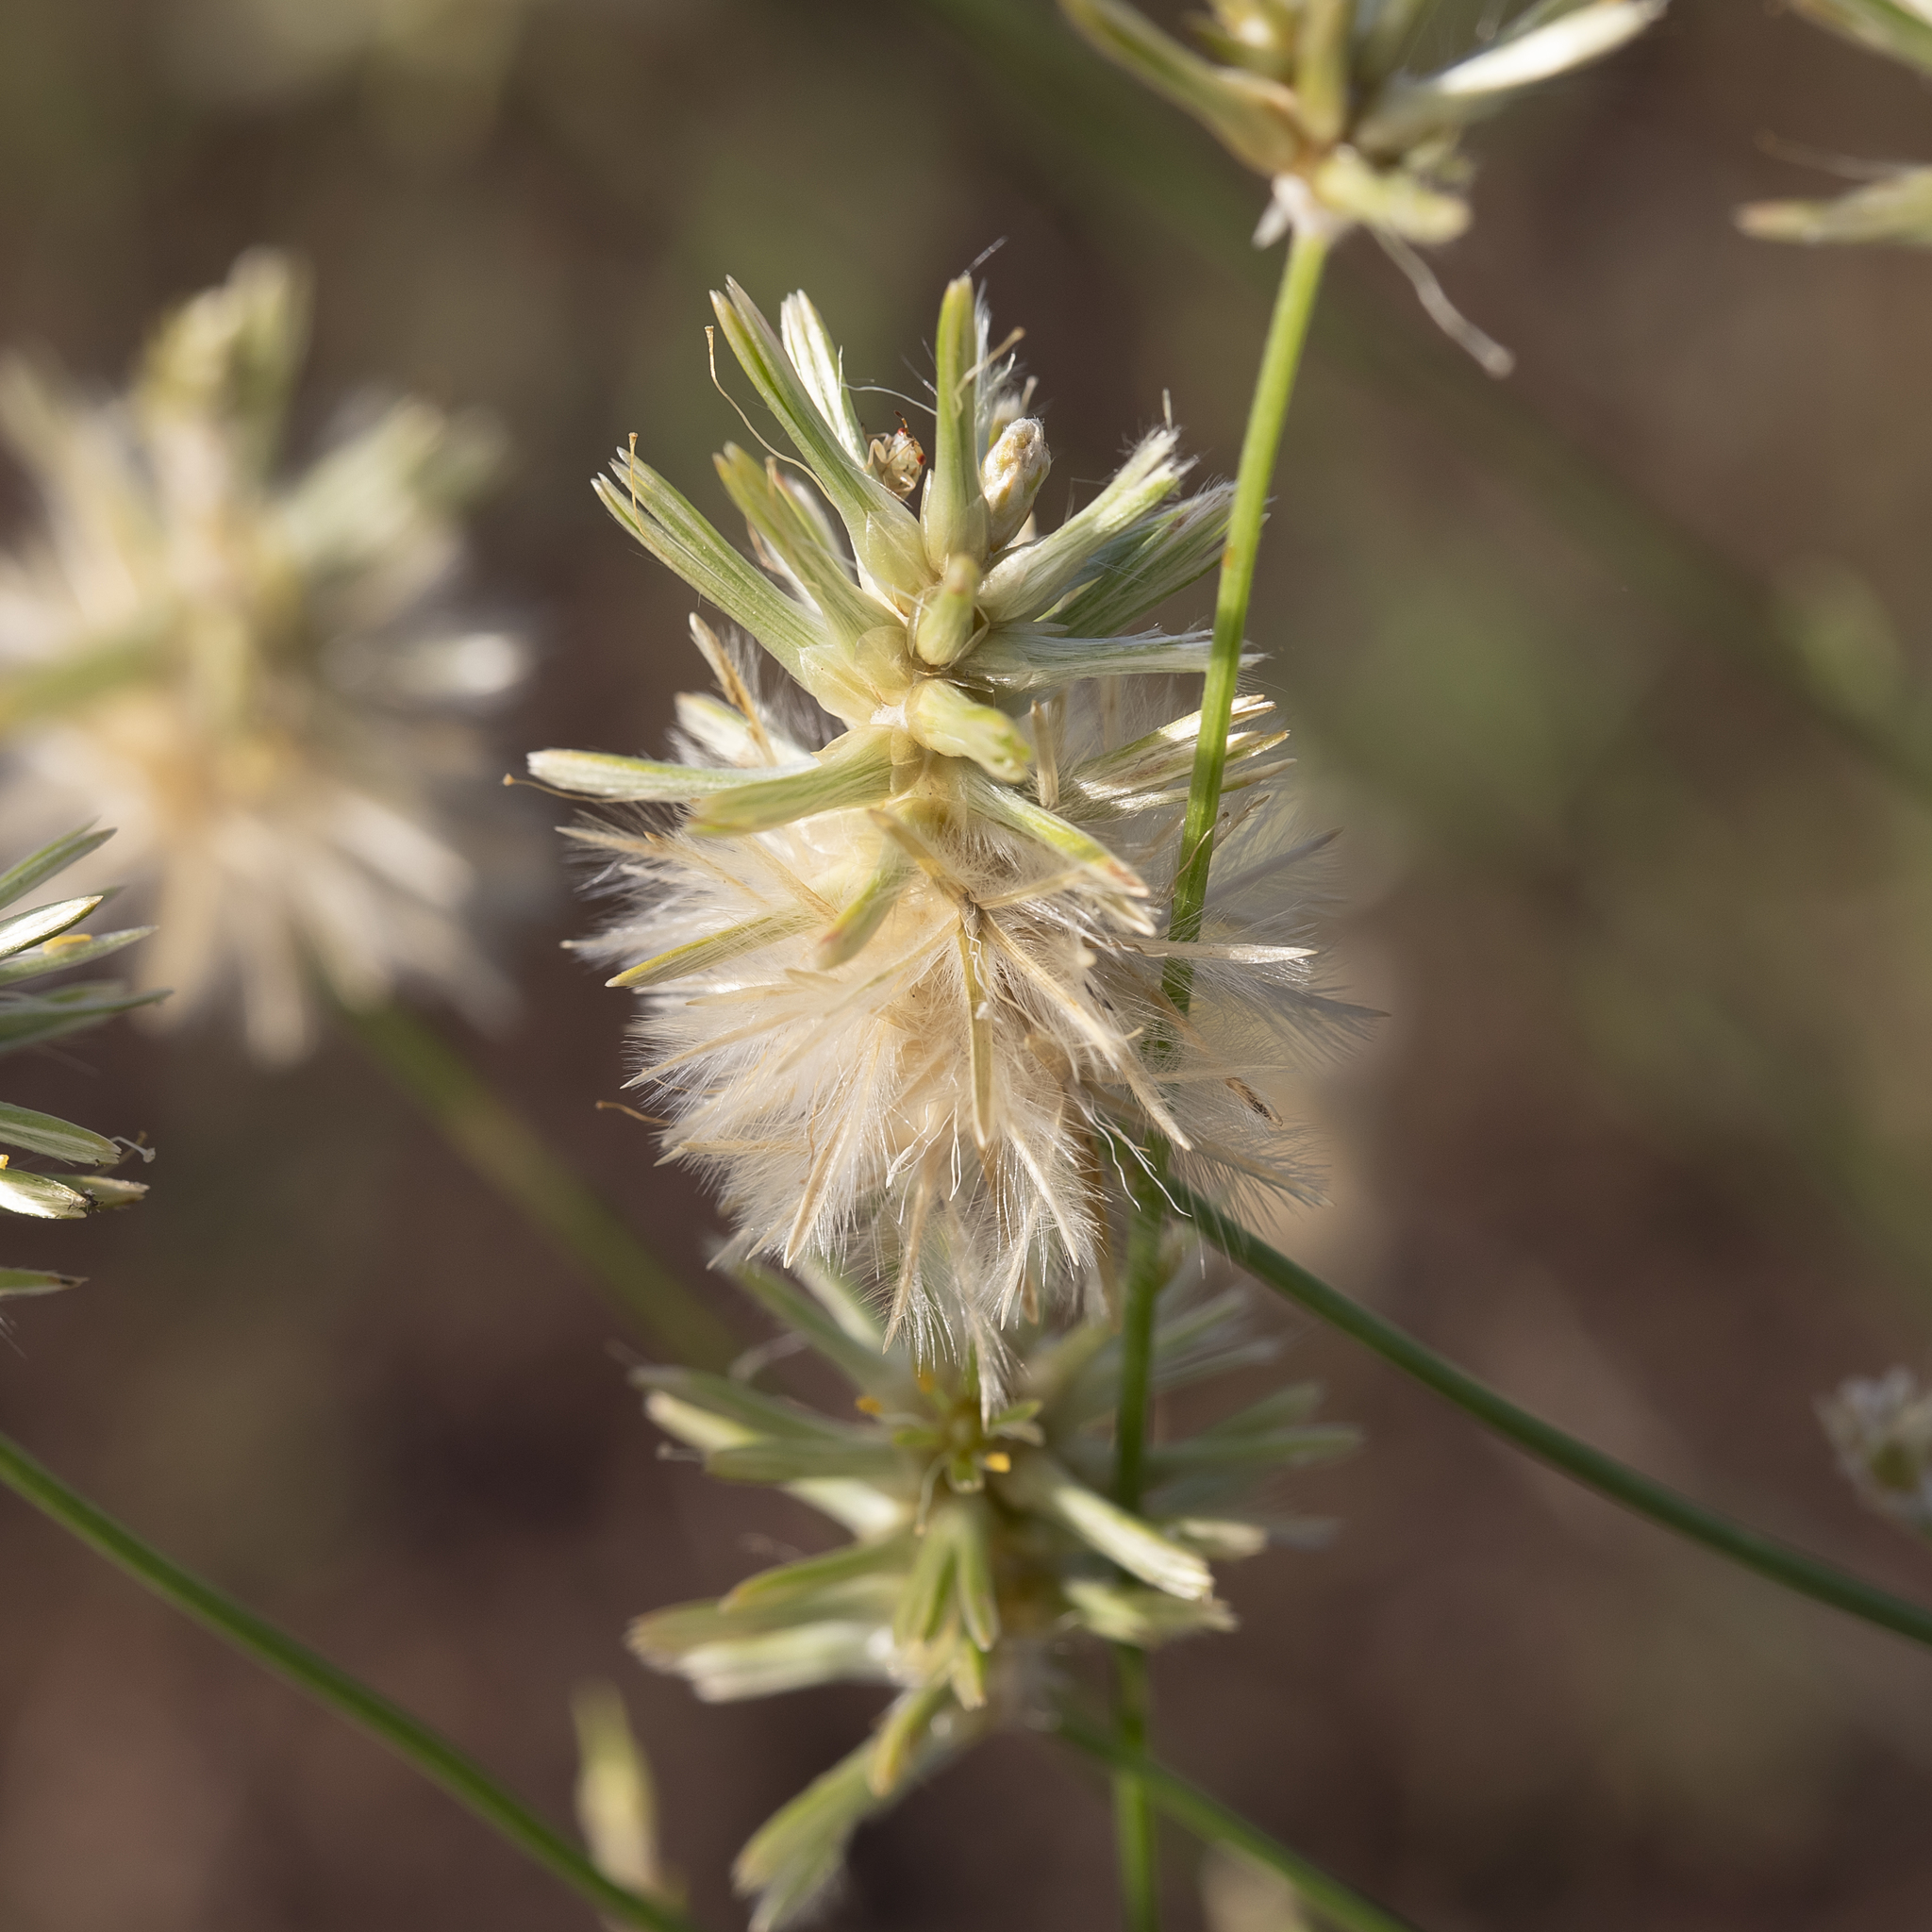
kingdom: Plantae
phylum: Tracheophyta
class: Magnoliopsida
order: Caryophyllales
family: Amaranthaceae
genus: Ptilotus
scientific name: Ptilotus fusiformis
